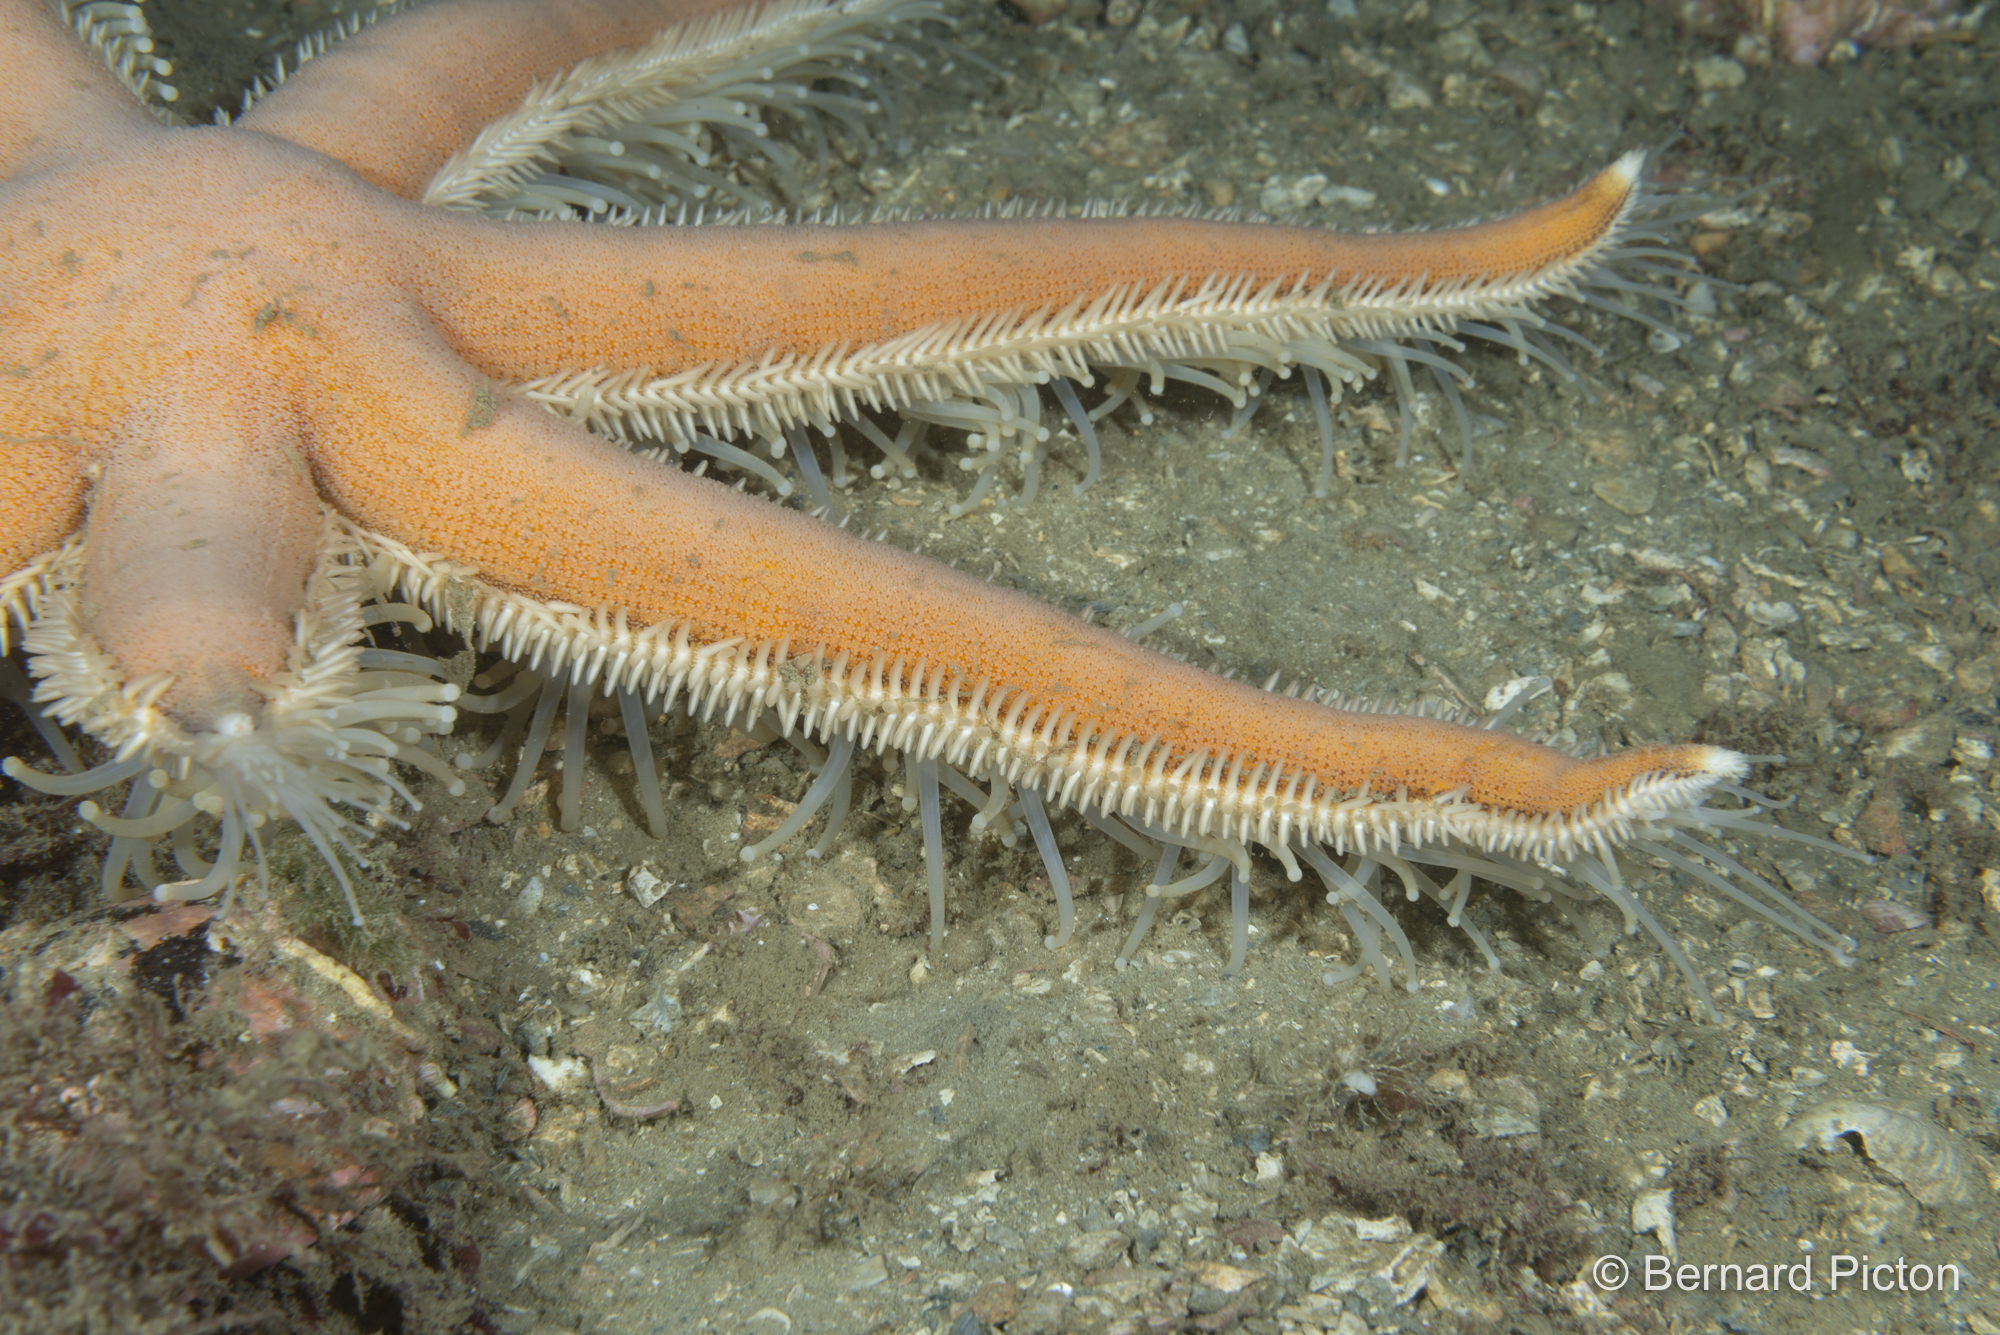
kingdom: Animalia
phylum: Echinodermata
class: Asteroidea
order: Paxillosida
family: Luidiidae
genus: Luidia
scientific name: Luidia ciliaris
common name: Seven-armed starfish
